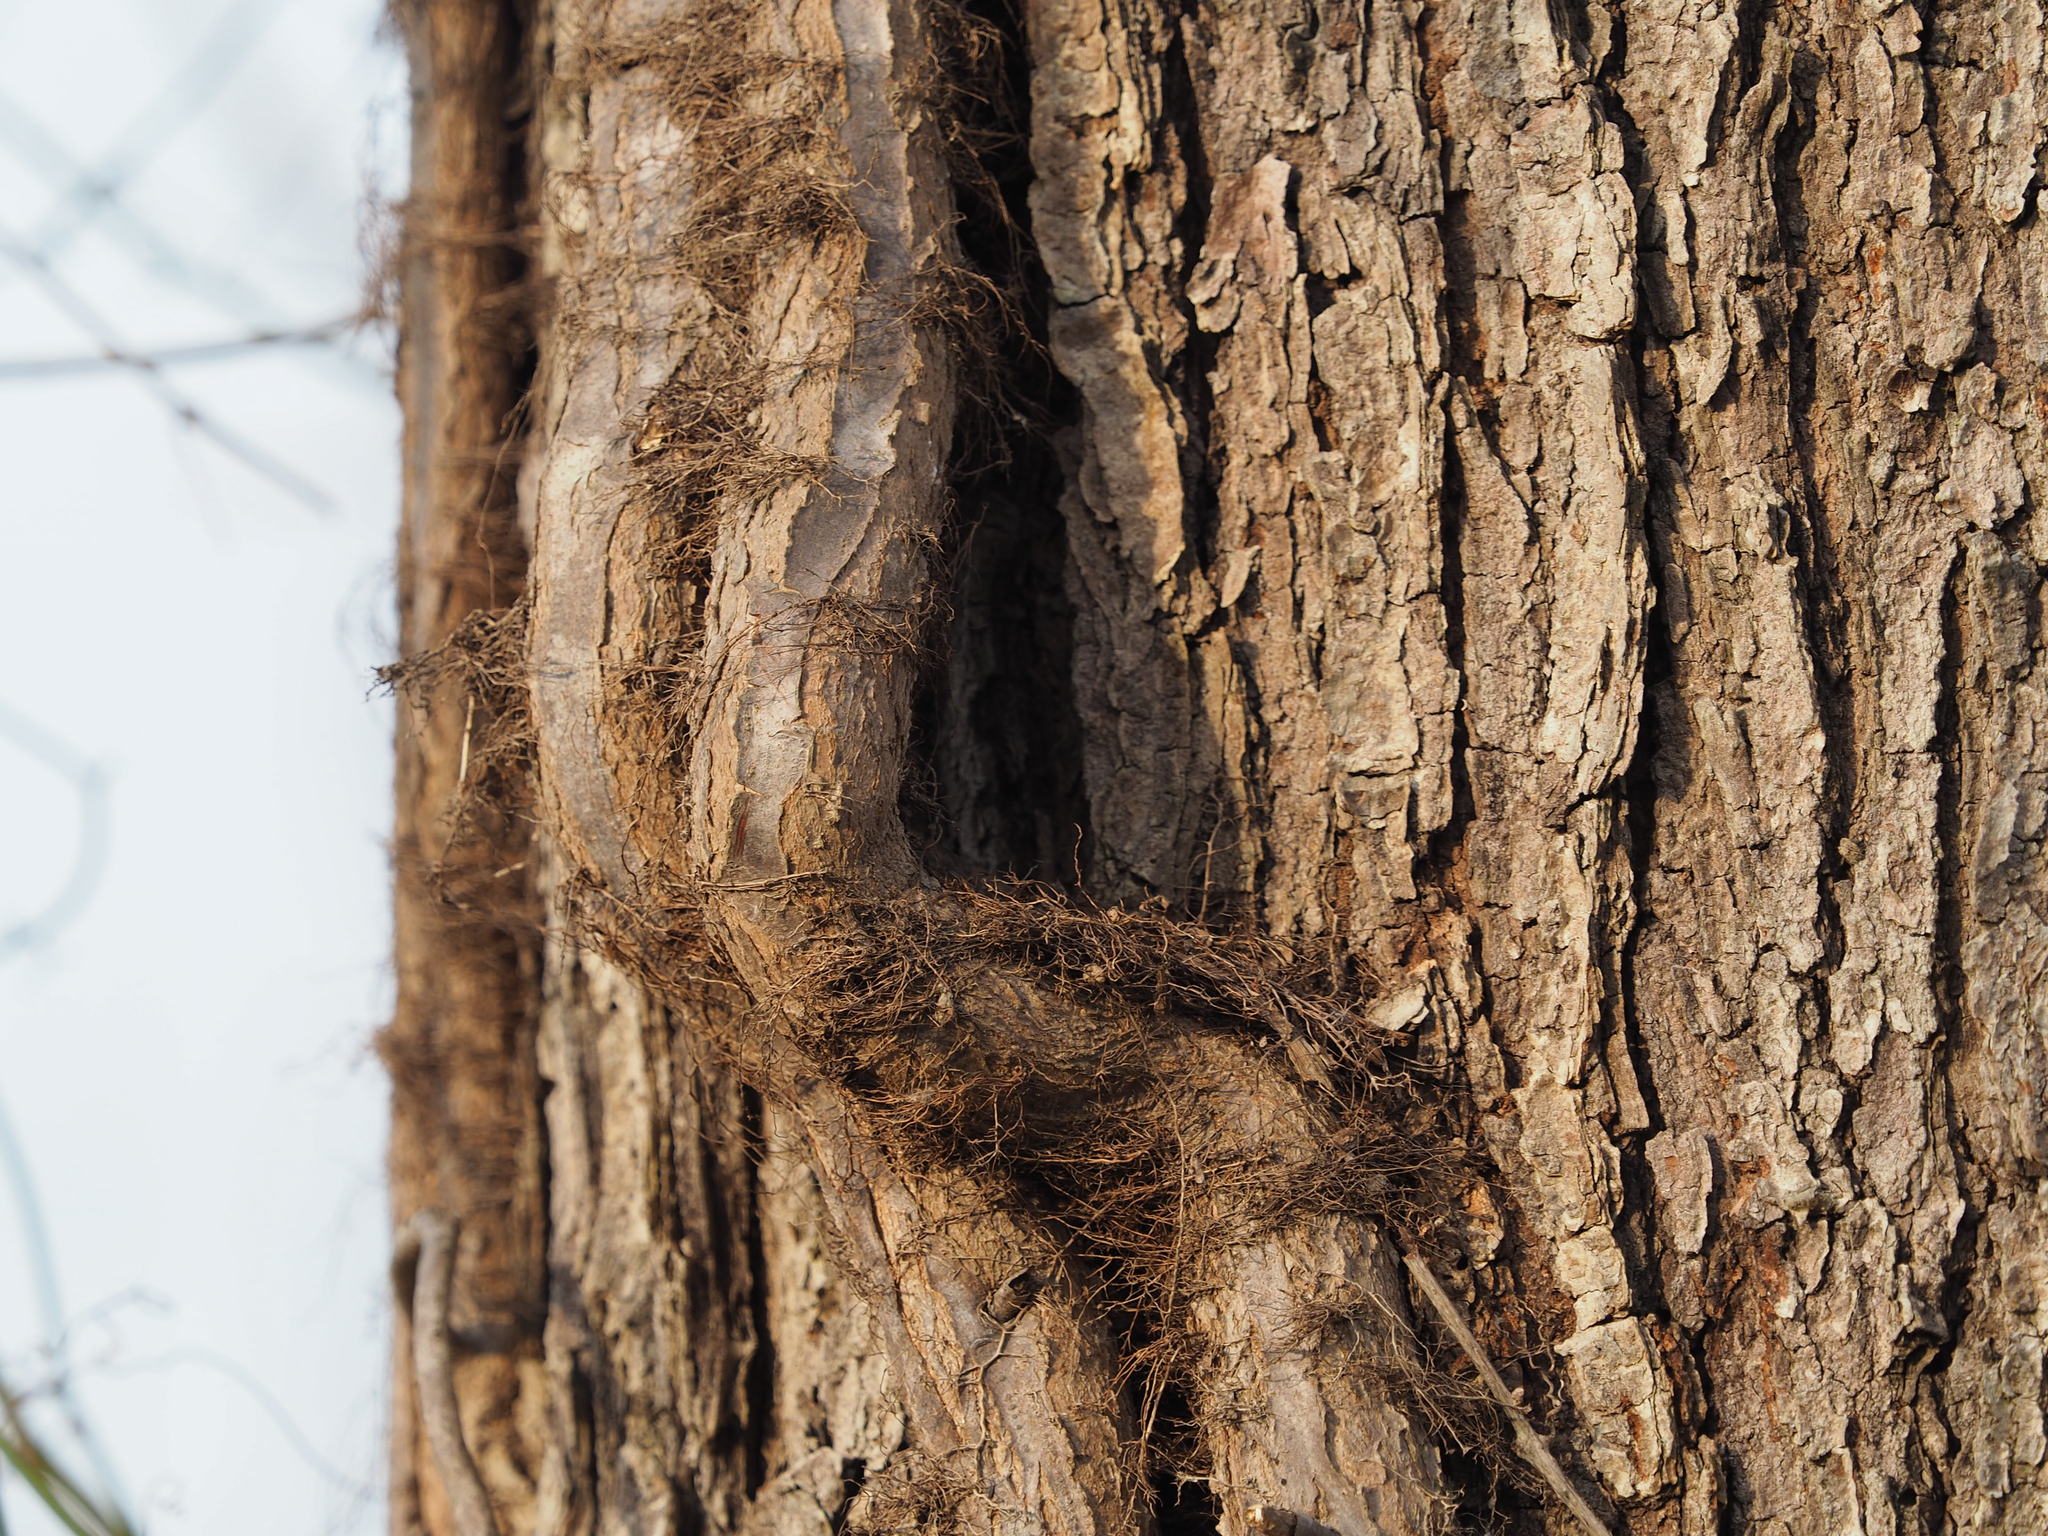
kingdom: Plantae
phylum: Tracheophyta
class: Magnoliopsida
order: Sapindales
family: Anacardiaceae
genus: Toxicodendron
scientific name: Toxicodendron radicans
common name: Poison ivy
